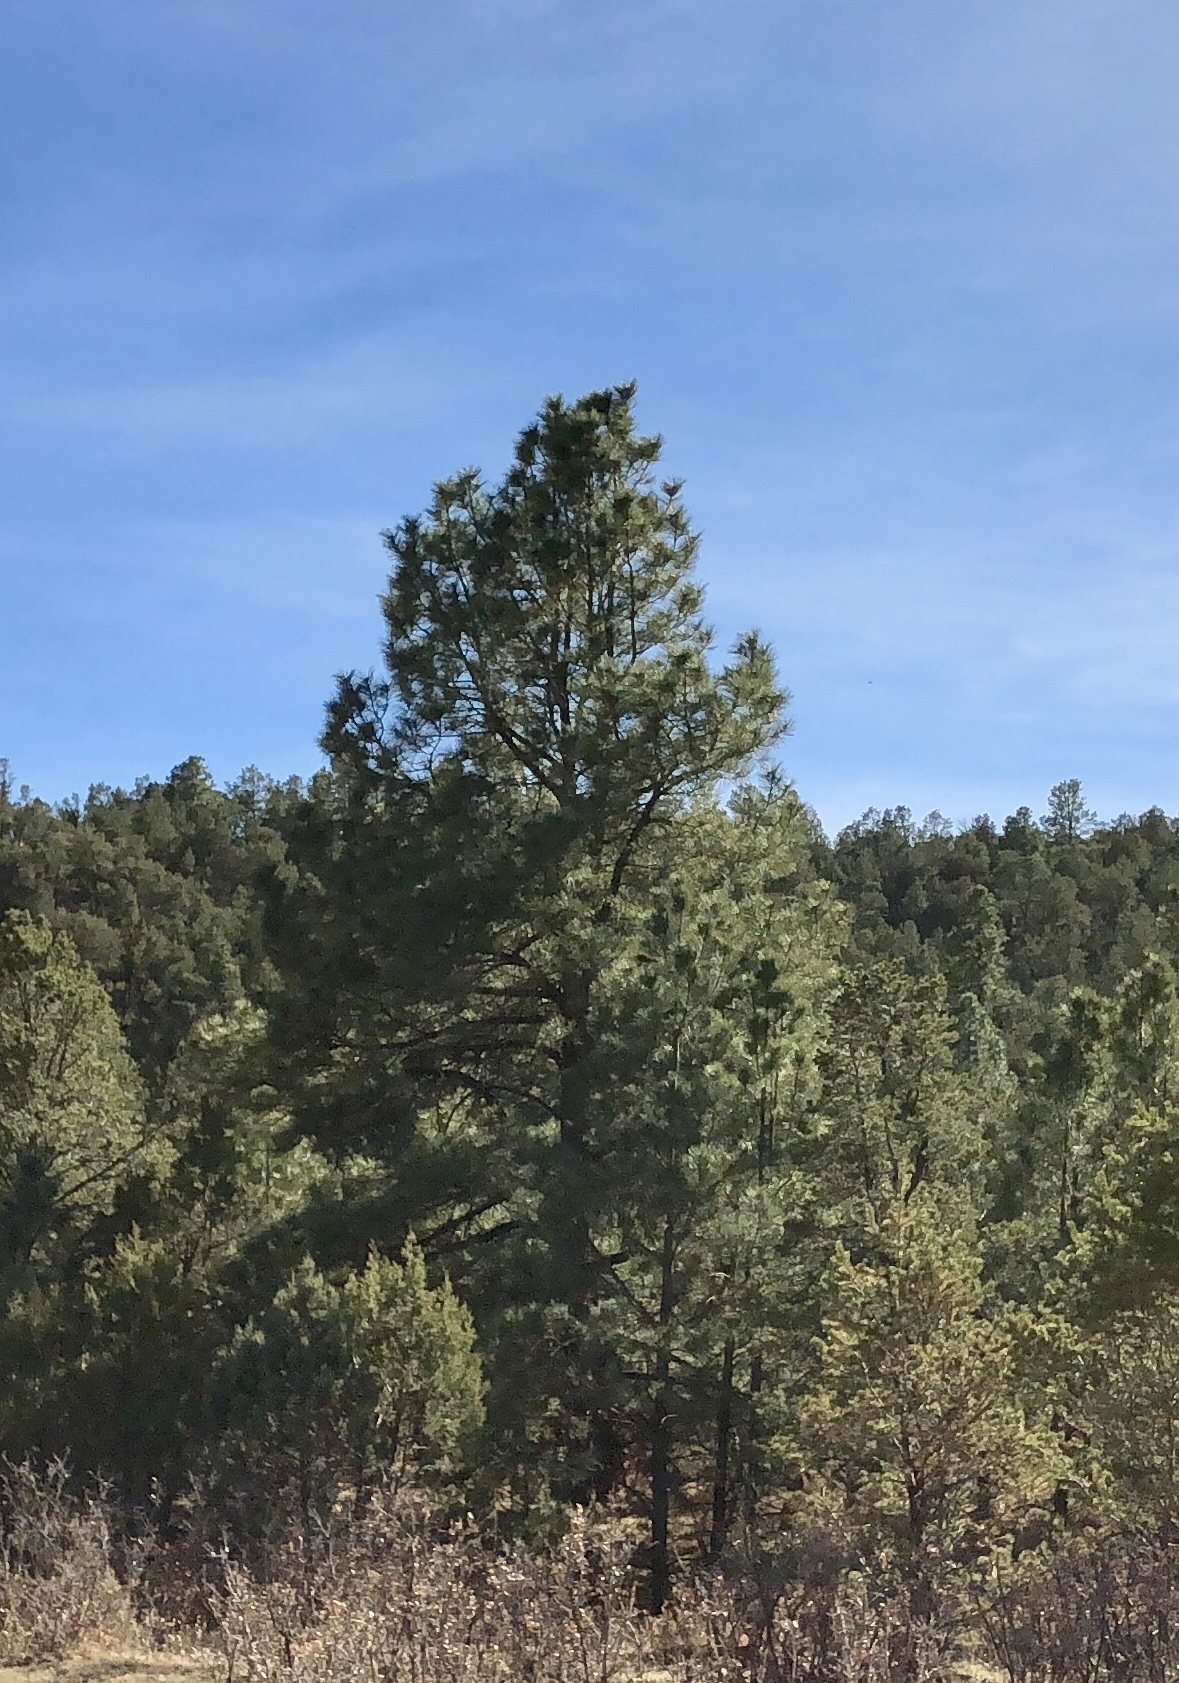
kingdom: Plantae
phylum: Tracheophyta
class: Pinopsida
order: Pinales
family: Pinaceae
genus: Pinus
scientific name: Pinus ponderosa
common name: Western yellow-pine
